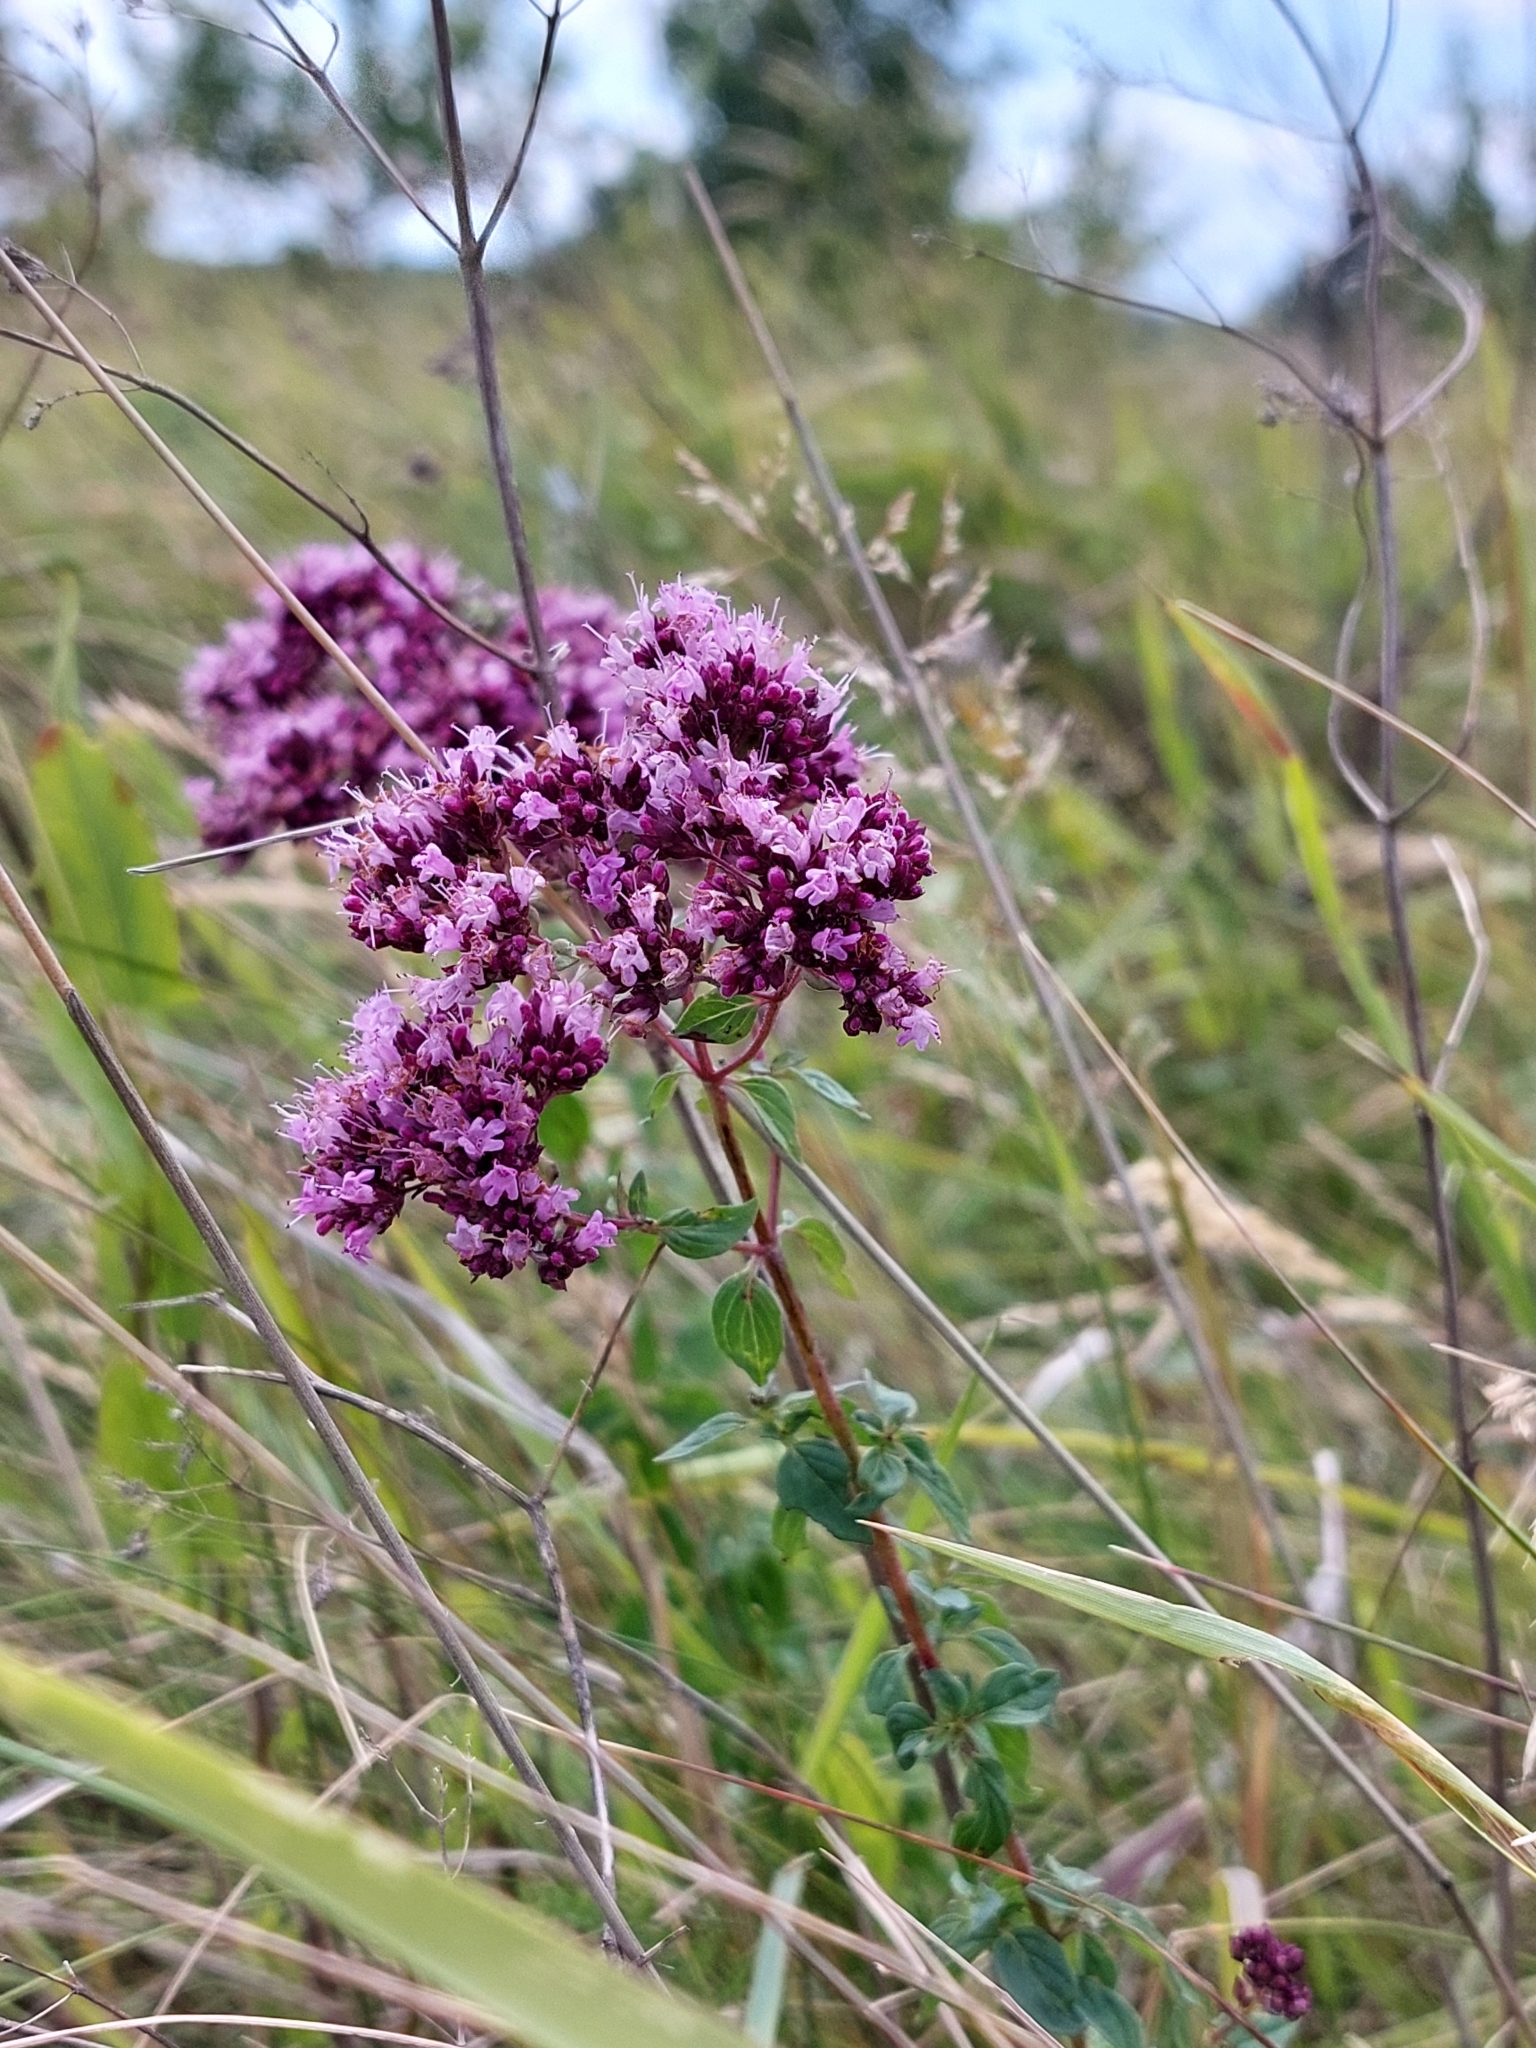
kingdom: Plantae
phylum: Tracheophyta
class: Magnoliopsida
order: Lamiales
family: Lamiaceae
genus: Origanum
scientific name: Origanum vulgare
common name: Wild marjoram
